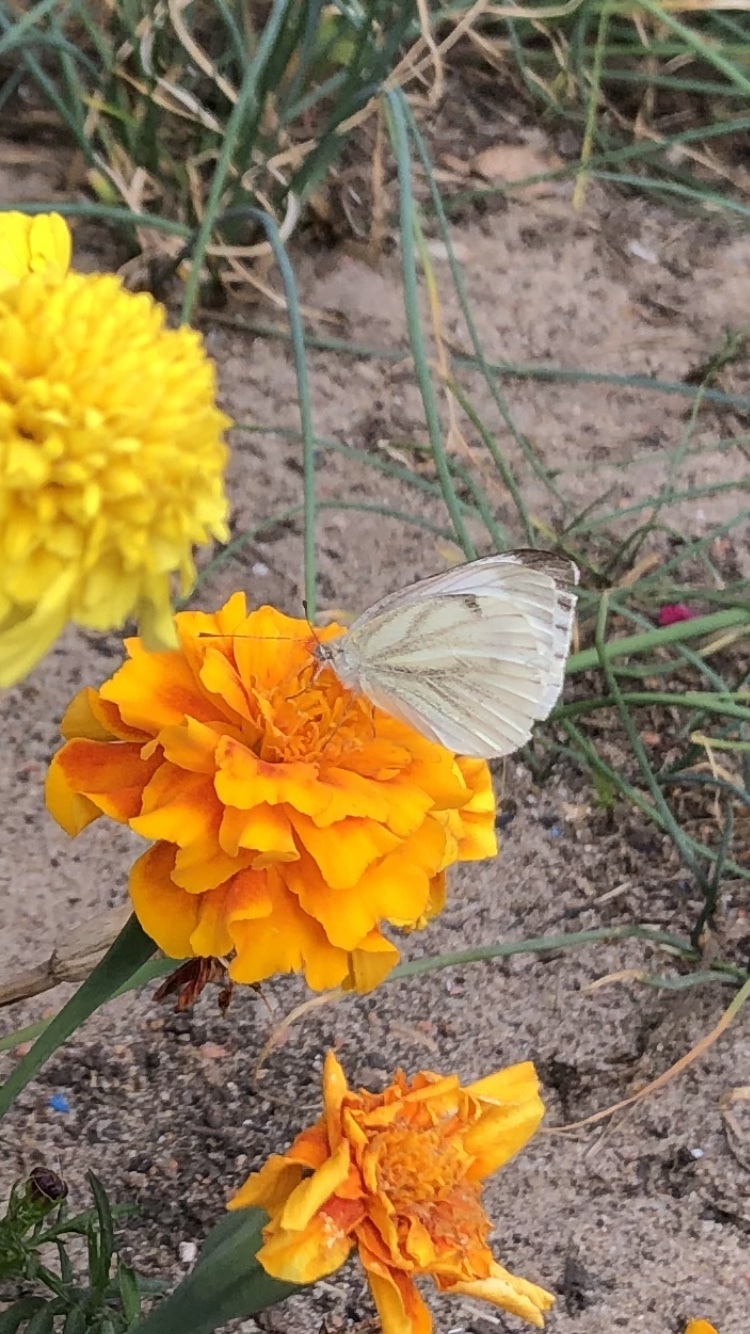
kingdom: Animalia
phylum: Arthropoda
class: Insecta
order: Lepidoptera
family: Pieridae
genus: Pieris
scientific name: Pieris napi
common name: Green-veined white
